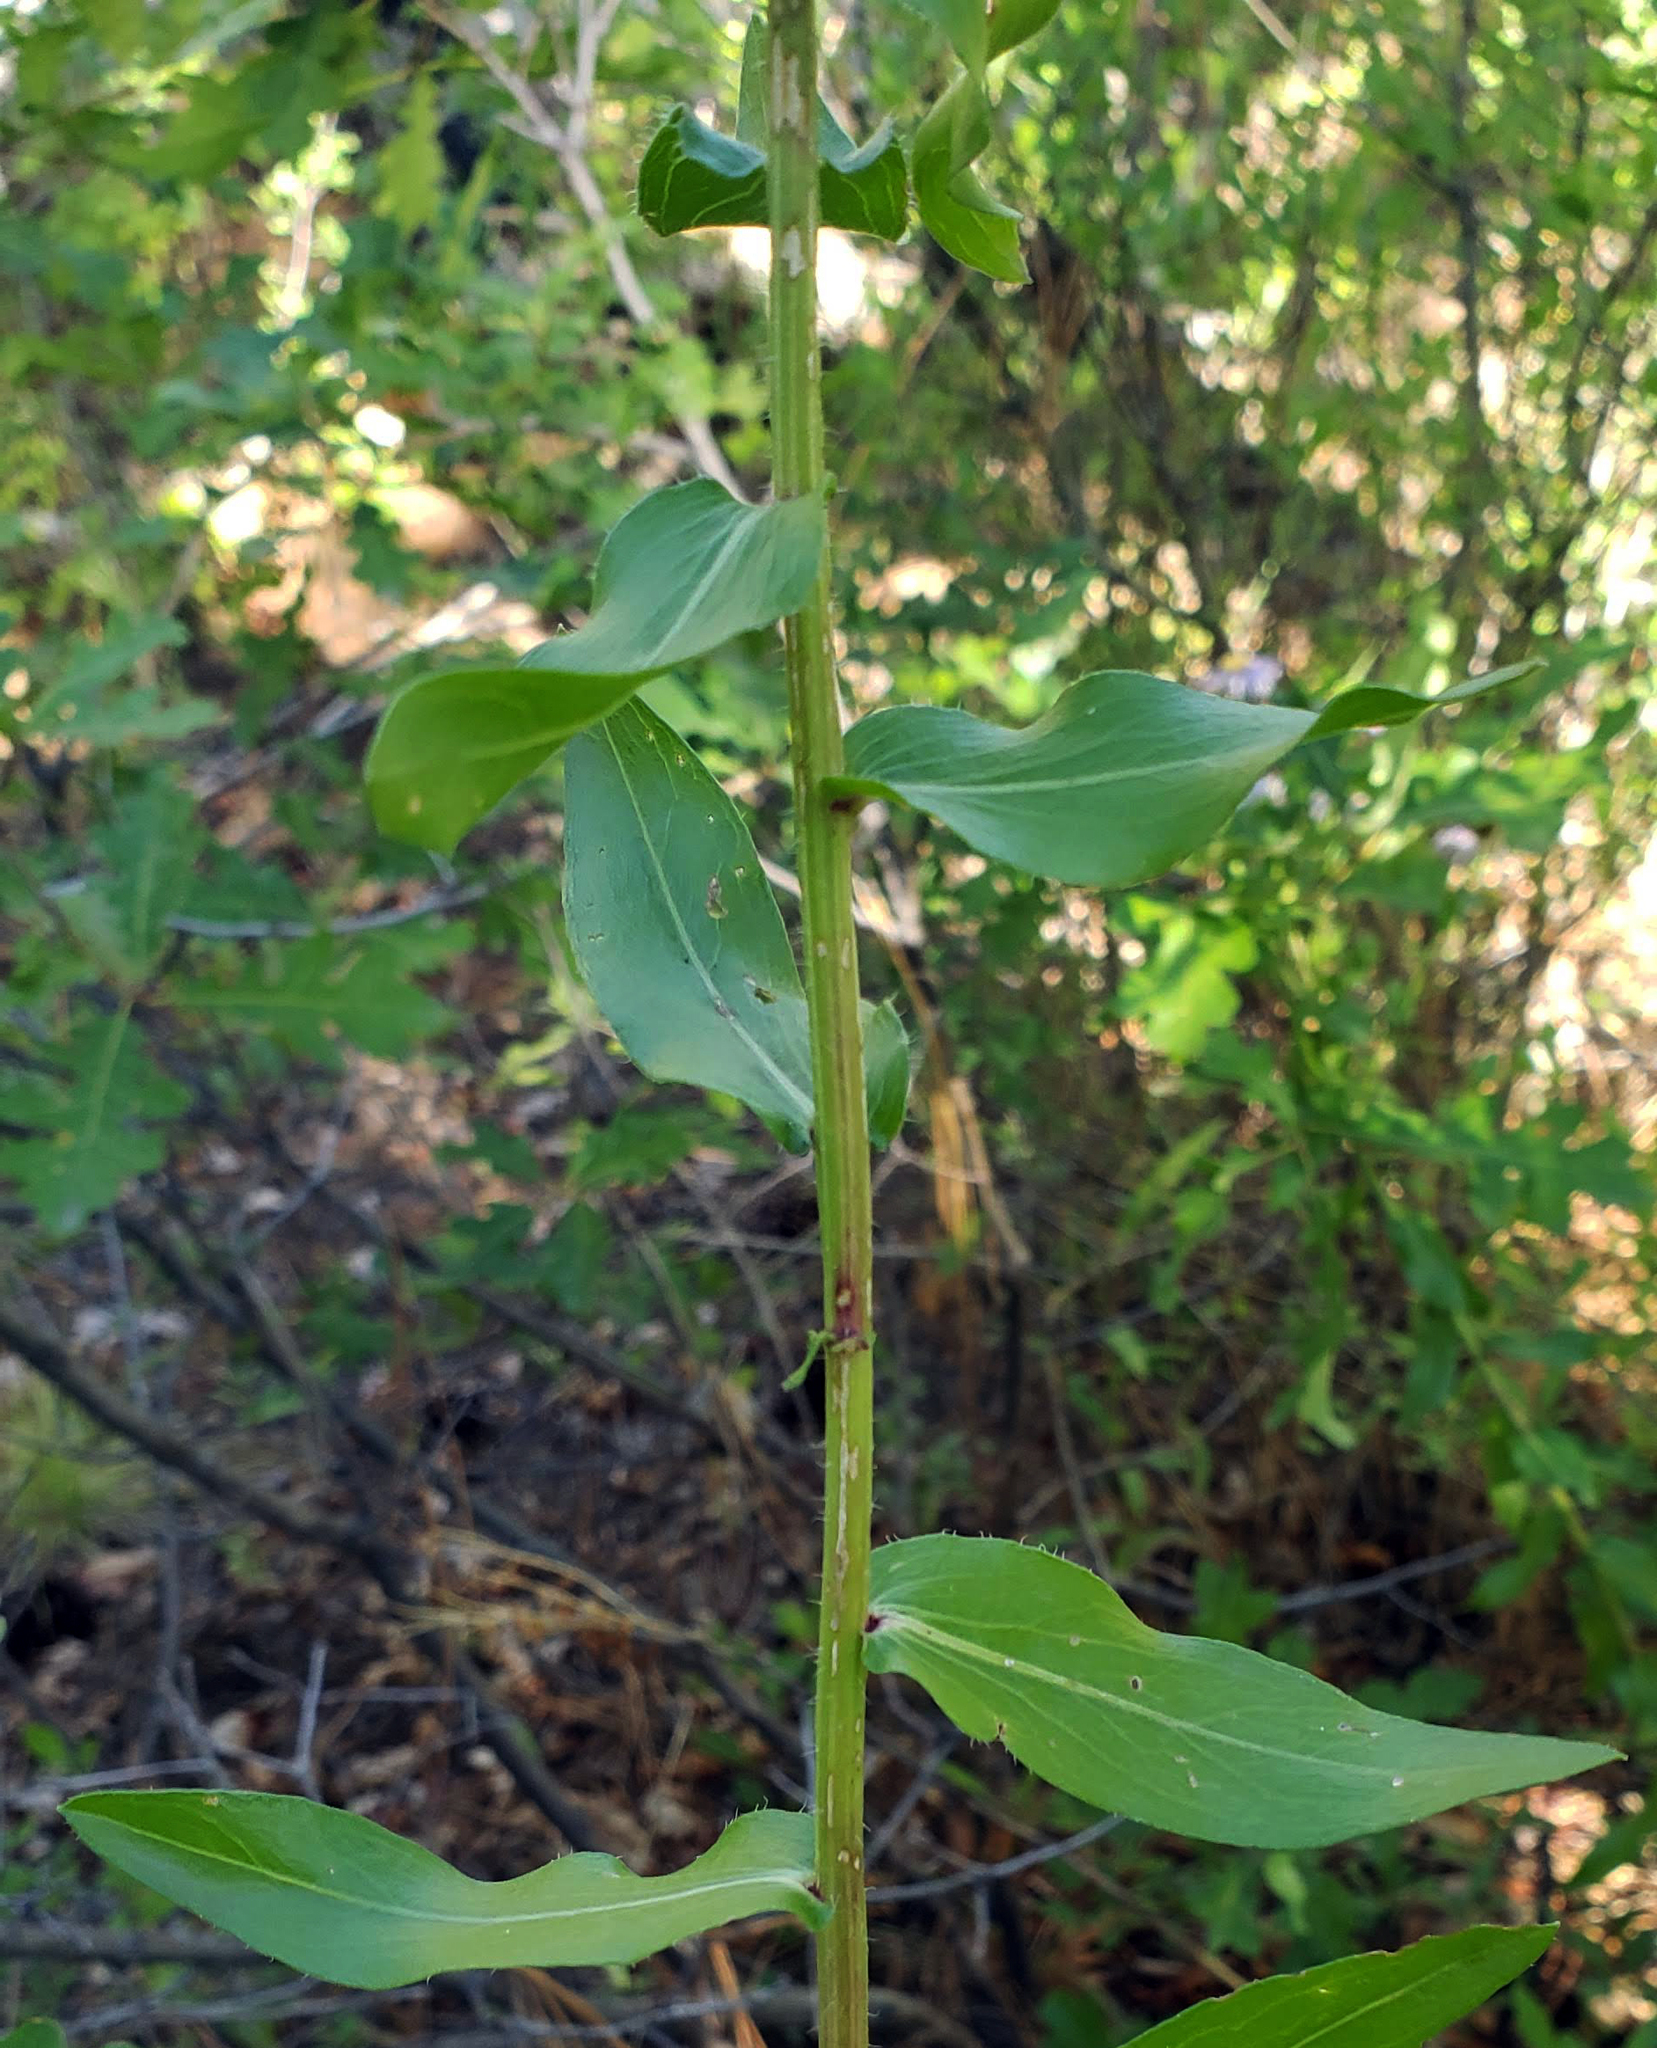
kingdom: Plantae
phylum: Tracheophyta
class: Magnoliopsida
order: Asterales
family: Asteraceae
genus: Erigeron
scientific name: Erigeron speciosus
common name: Aspen fleabane
